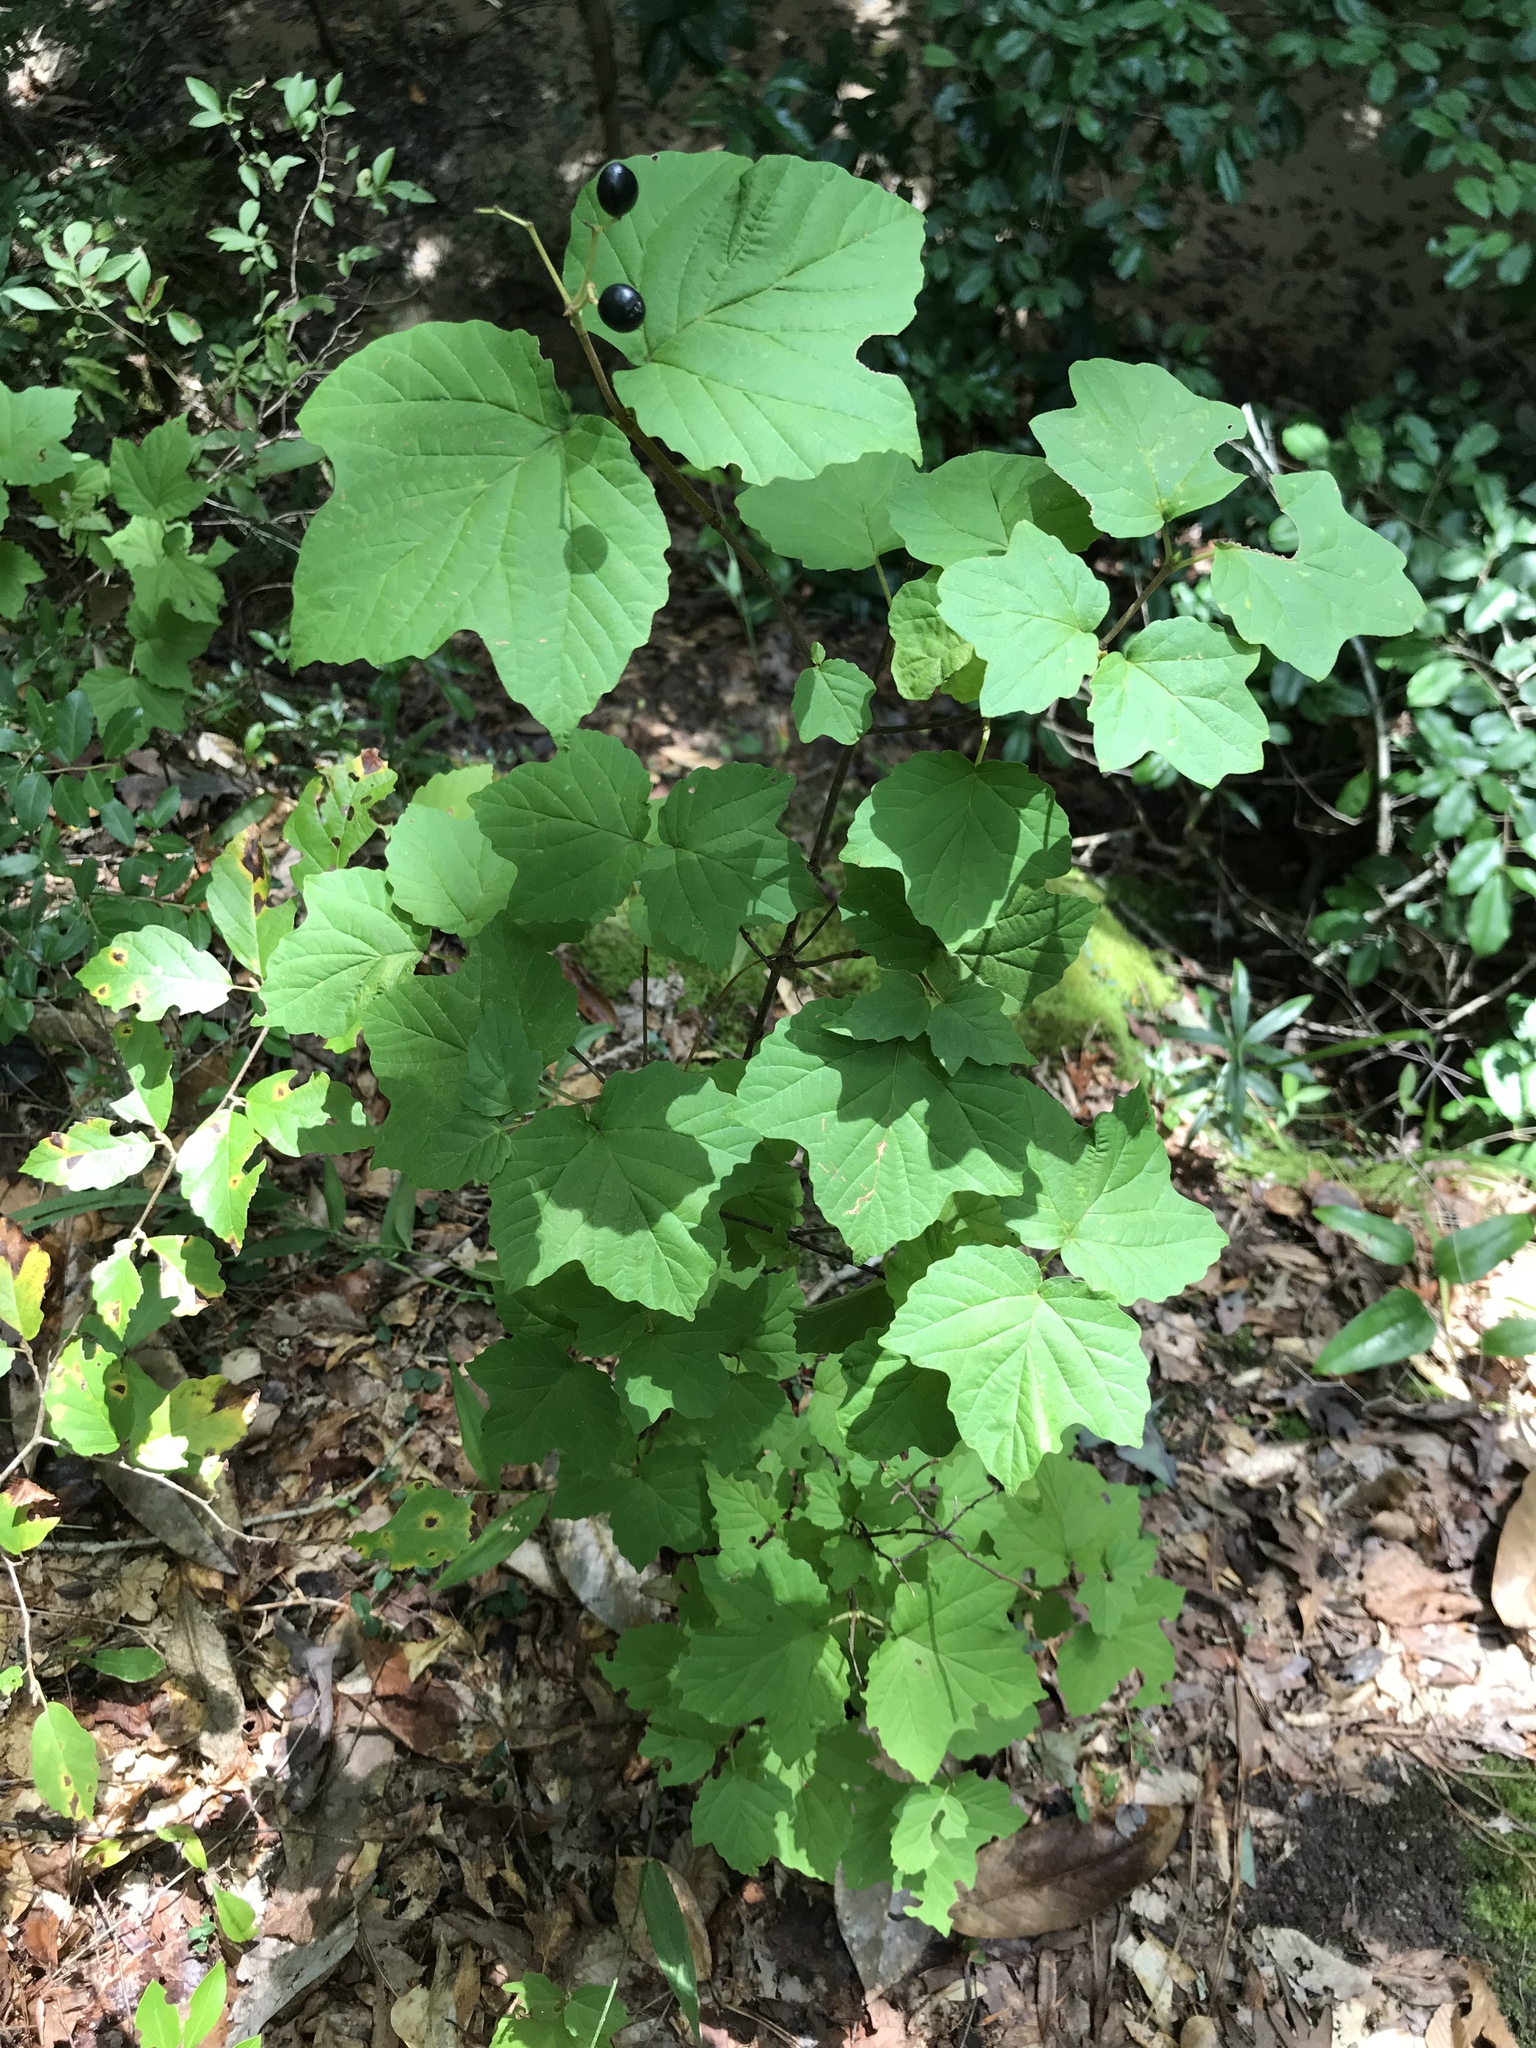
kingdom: Plantae
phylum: Tracheophyta
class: Magnoliopsida
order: Dipsacales
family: Viburnaceae
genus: Viburnum
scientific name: Viburnum acerifolium
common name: Dockmackie
